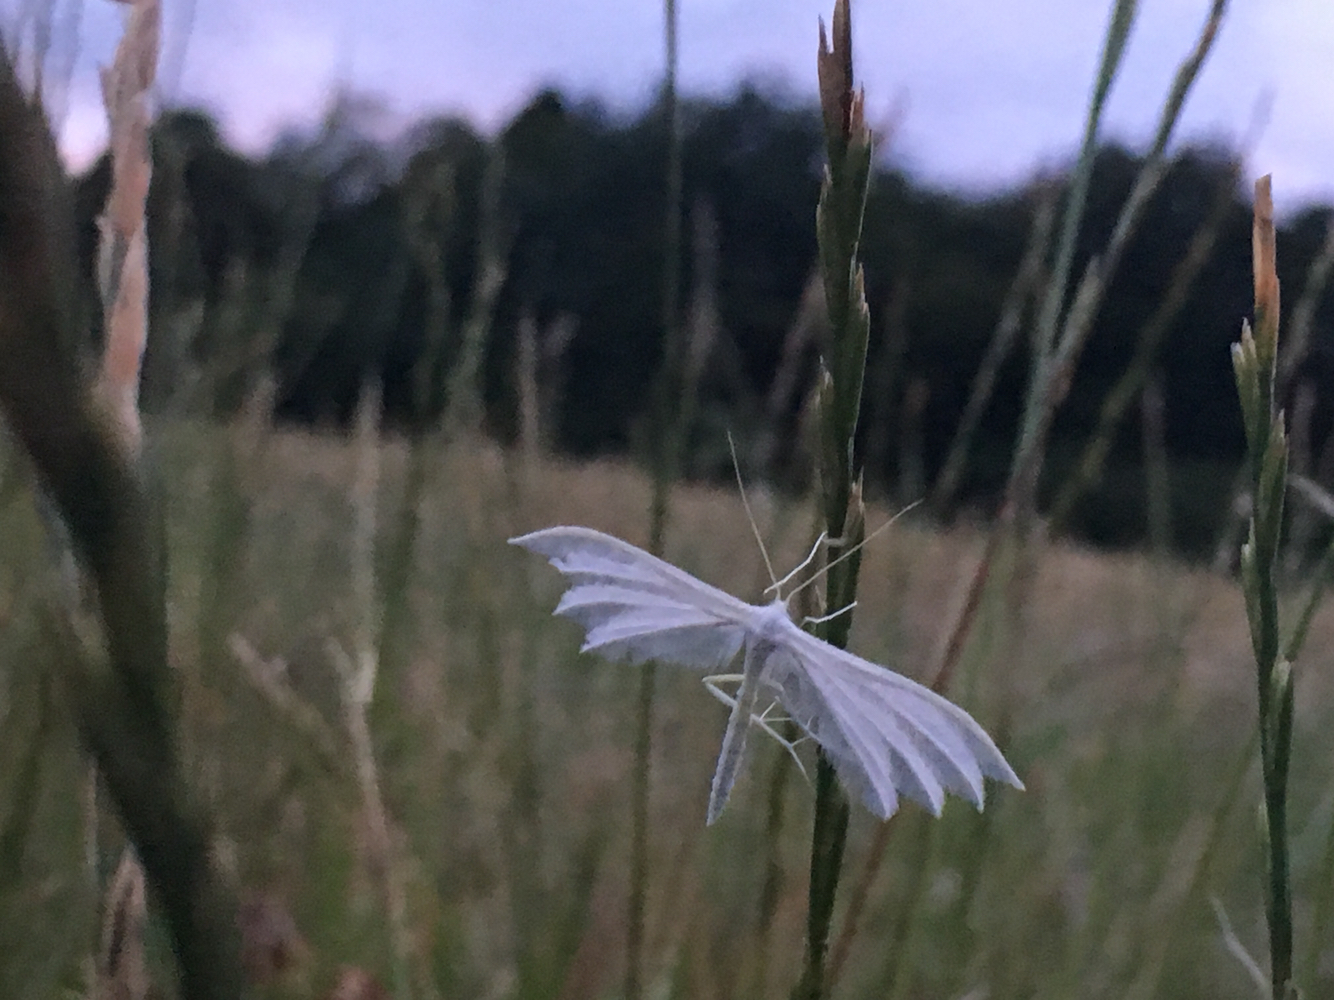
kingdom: Animalia
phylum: Arthropoda
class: Insecta
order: Lepidoptera
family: Pterophoridae
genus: Pterophorus
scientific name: Pterophorus pentadactyla
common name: White plume moth
